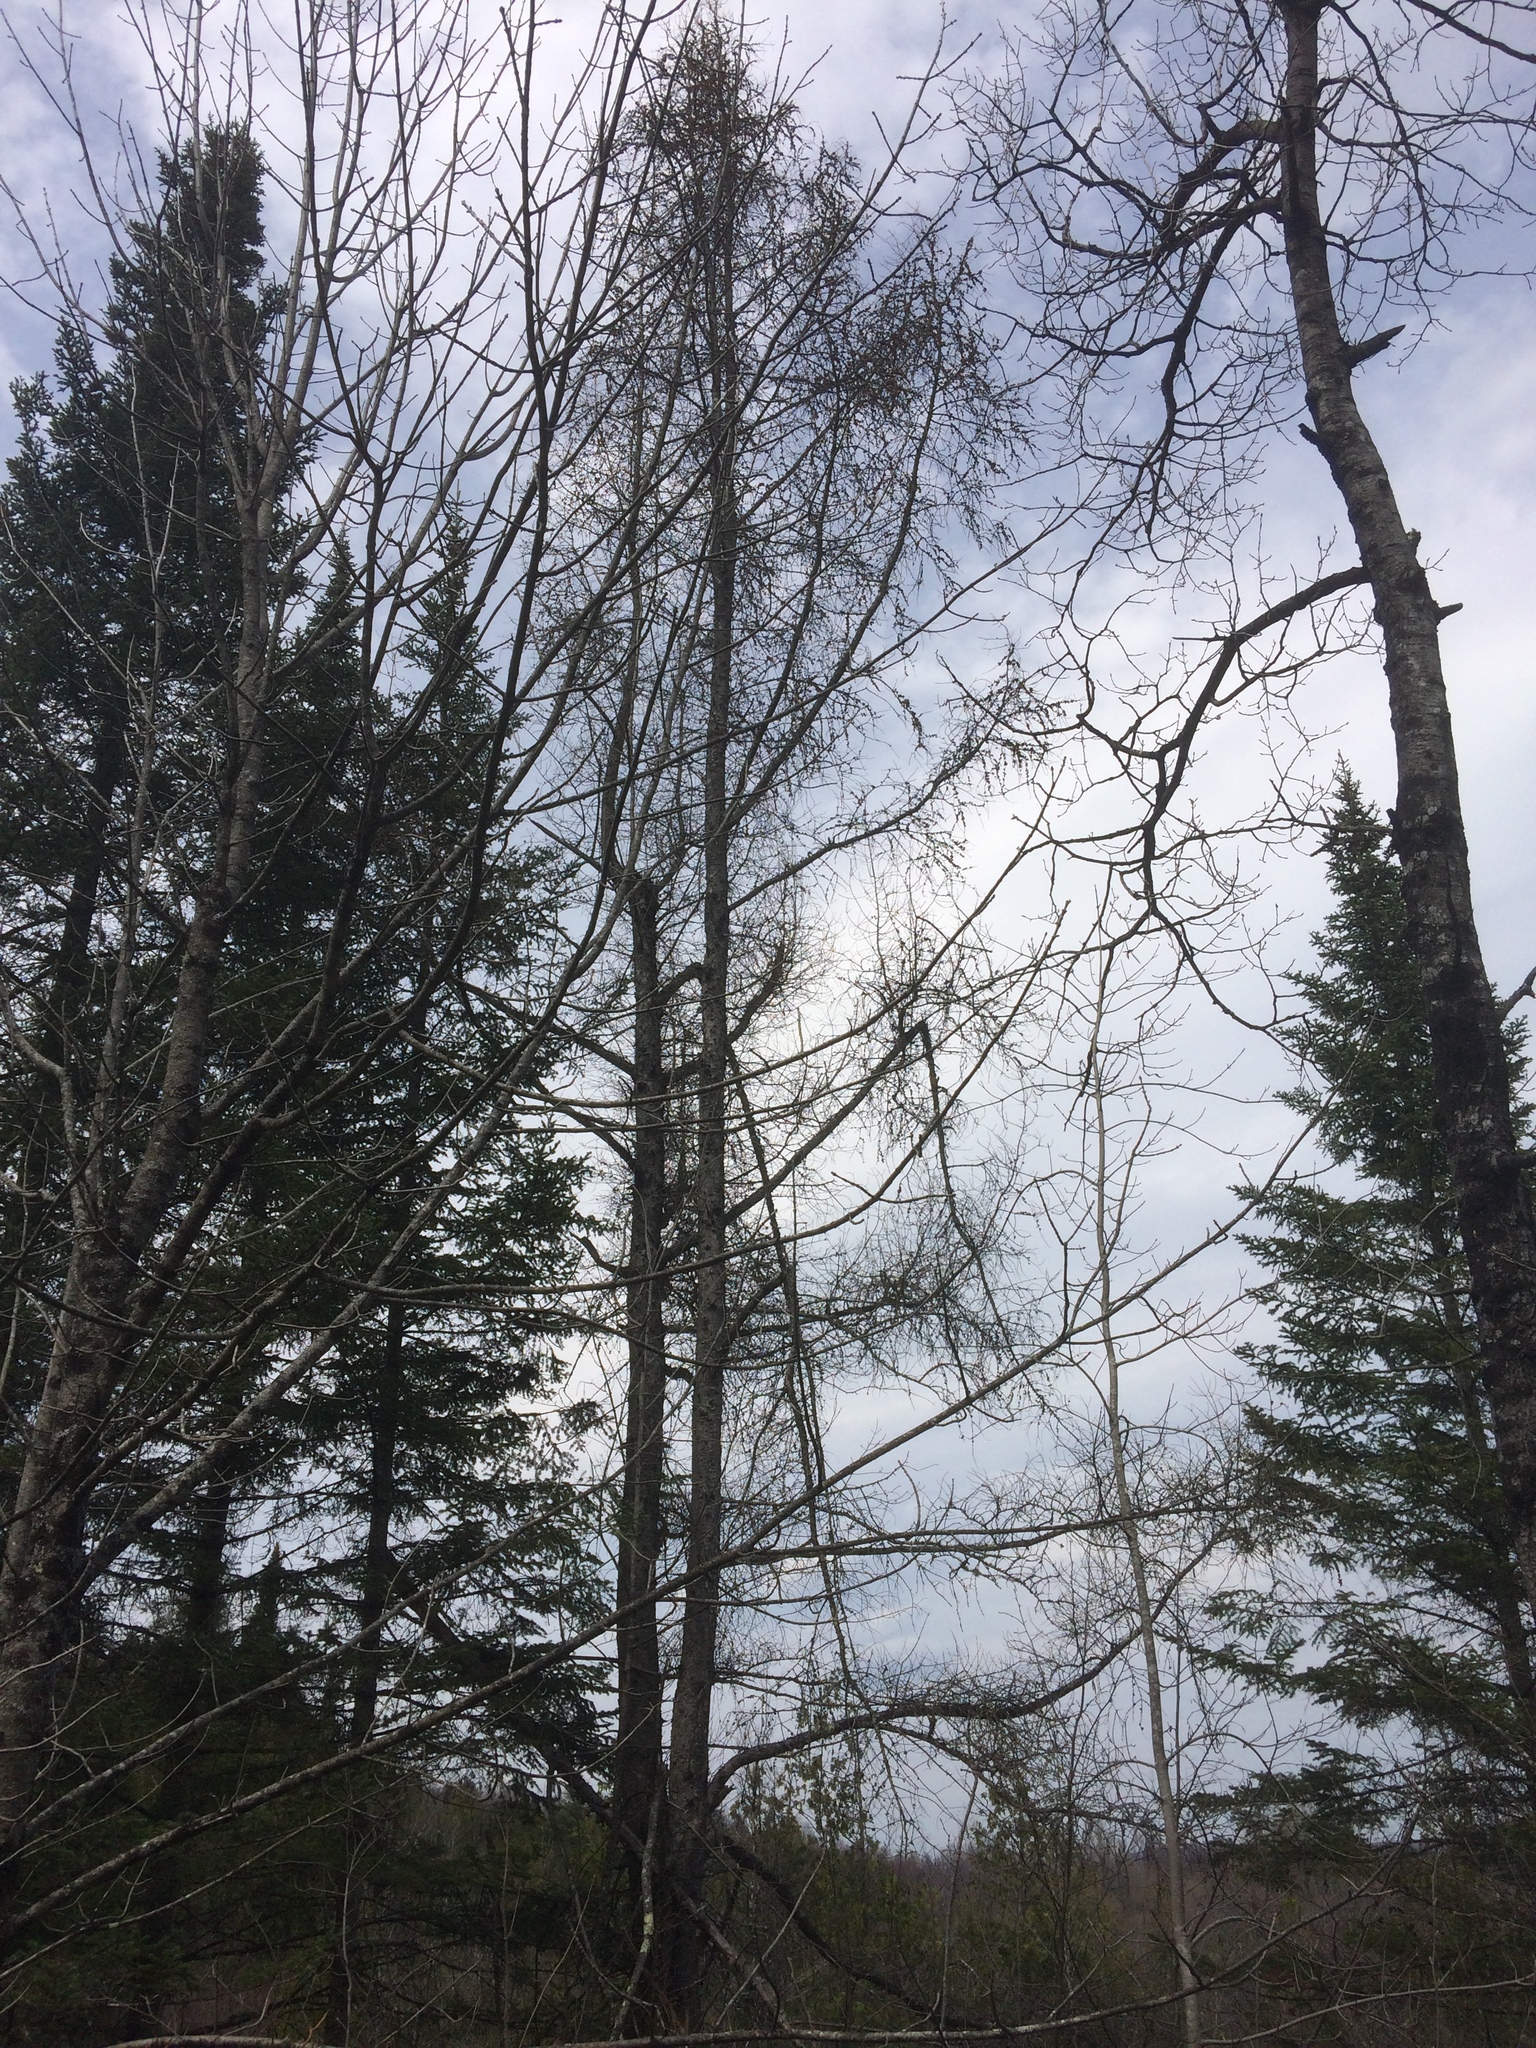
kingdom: Plantae
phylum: Tracheophyta
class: Pinopsida
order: Pinales
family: Pinaceae
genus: Larix
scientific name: Larix laricina
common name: American larch
